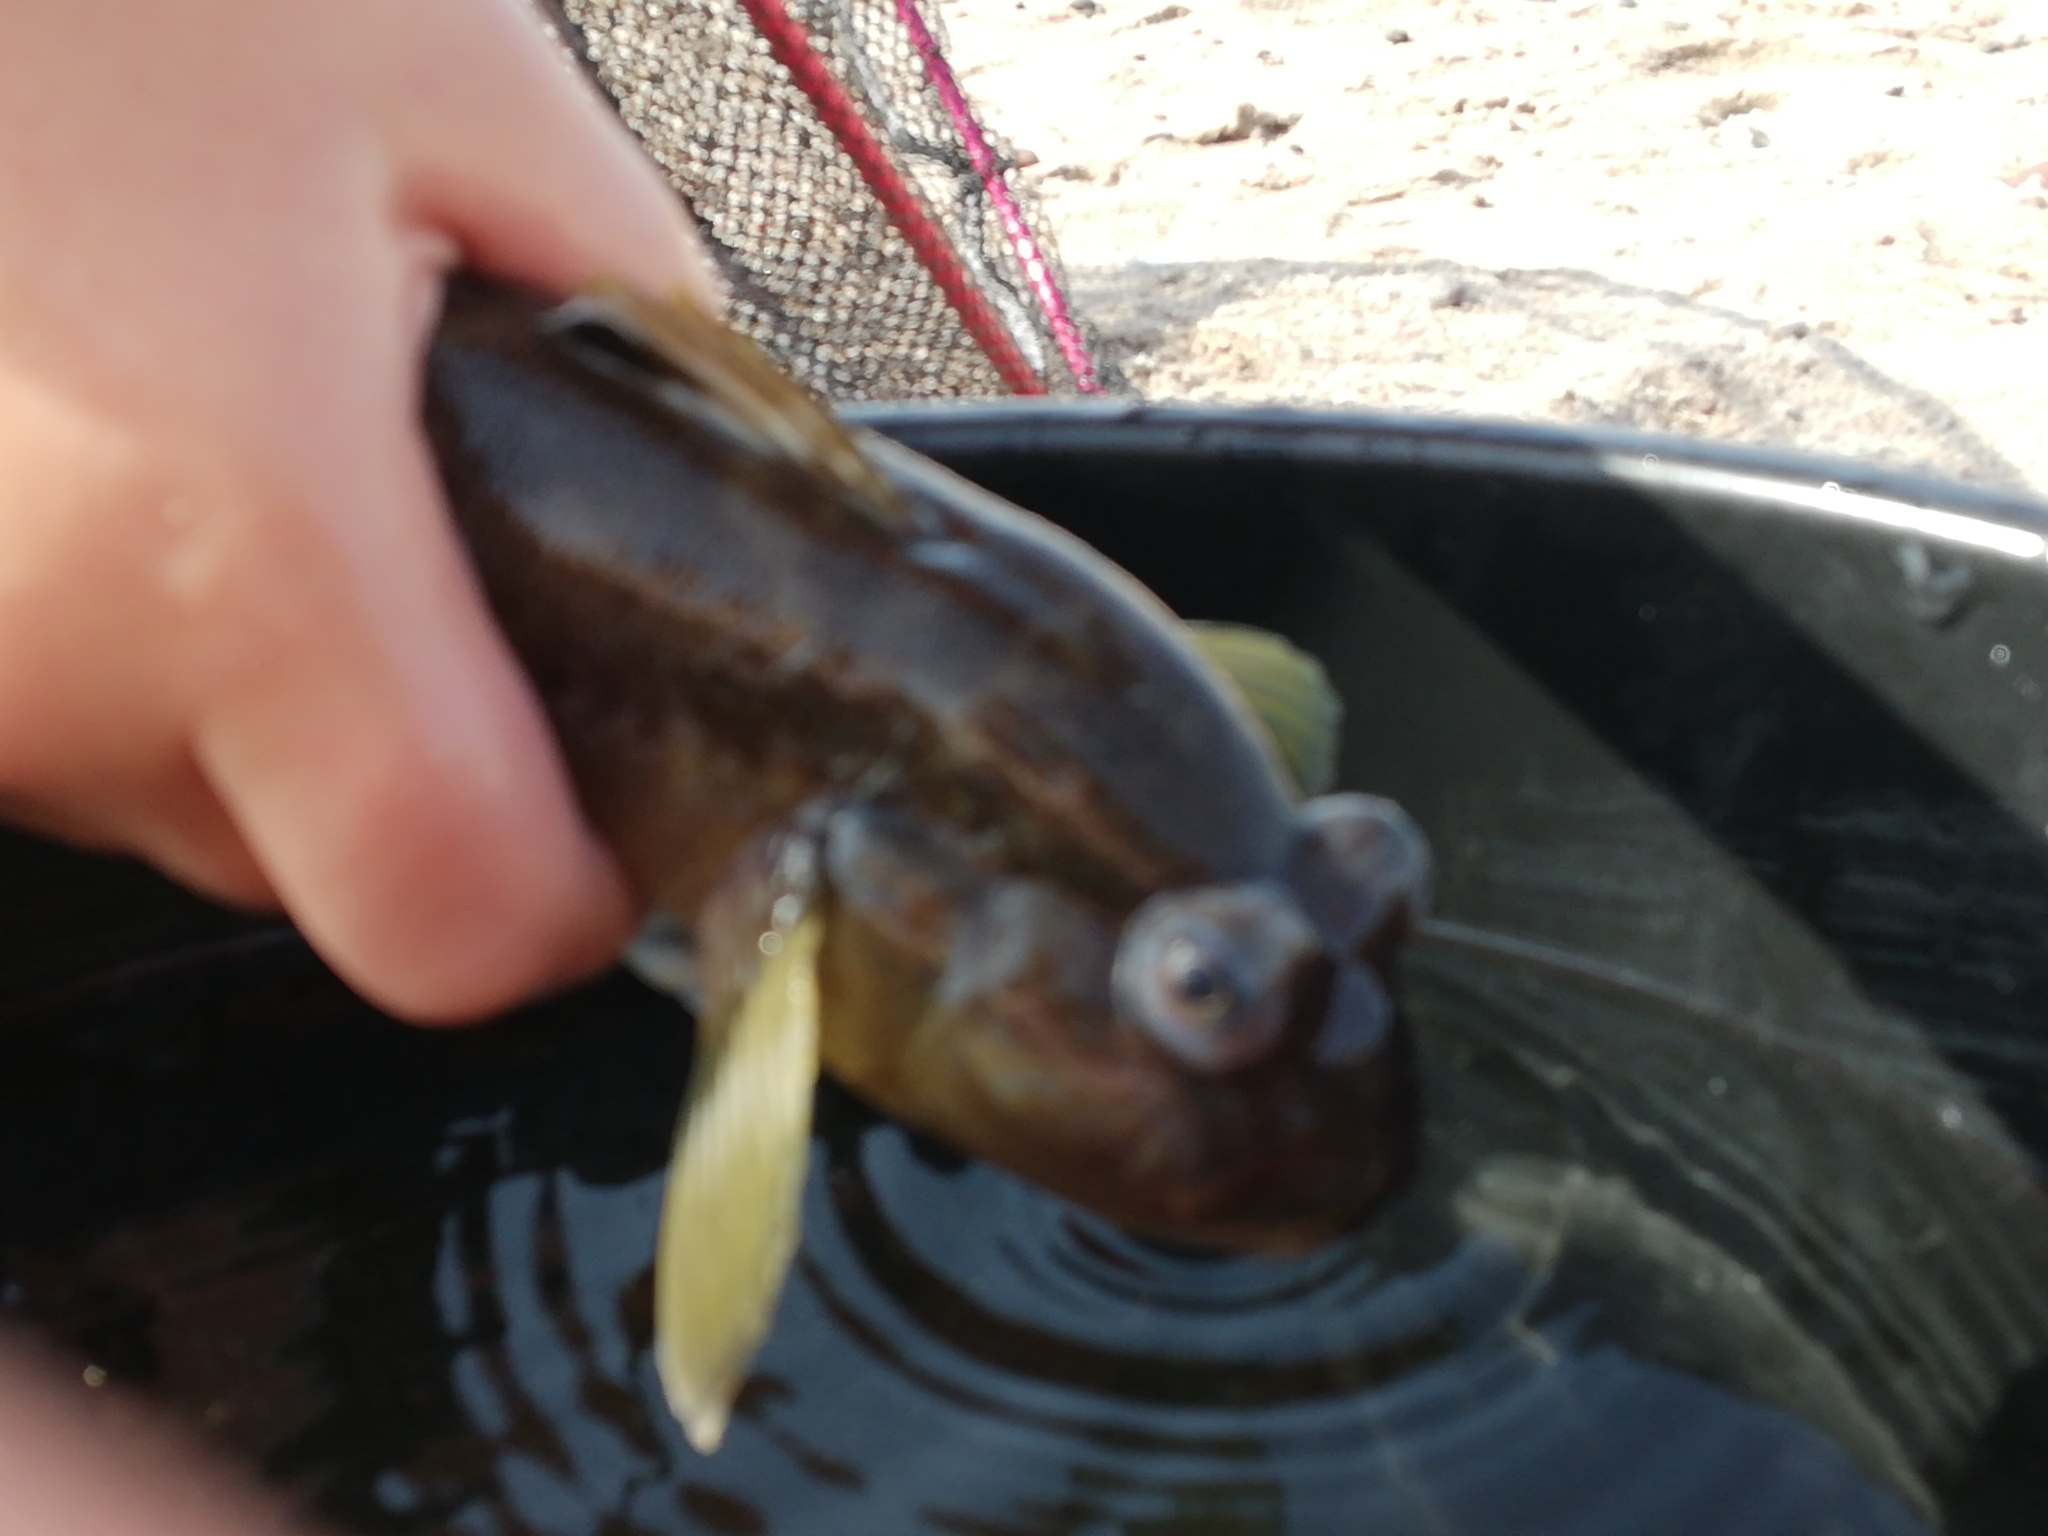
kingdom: Animalia
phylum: Chordata
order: Perciformes
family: Gobiidae
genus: Neogobius
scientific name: Neogobius melanostomus
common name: Round goby
